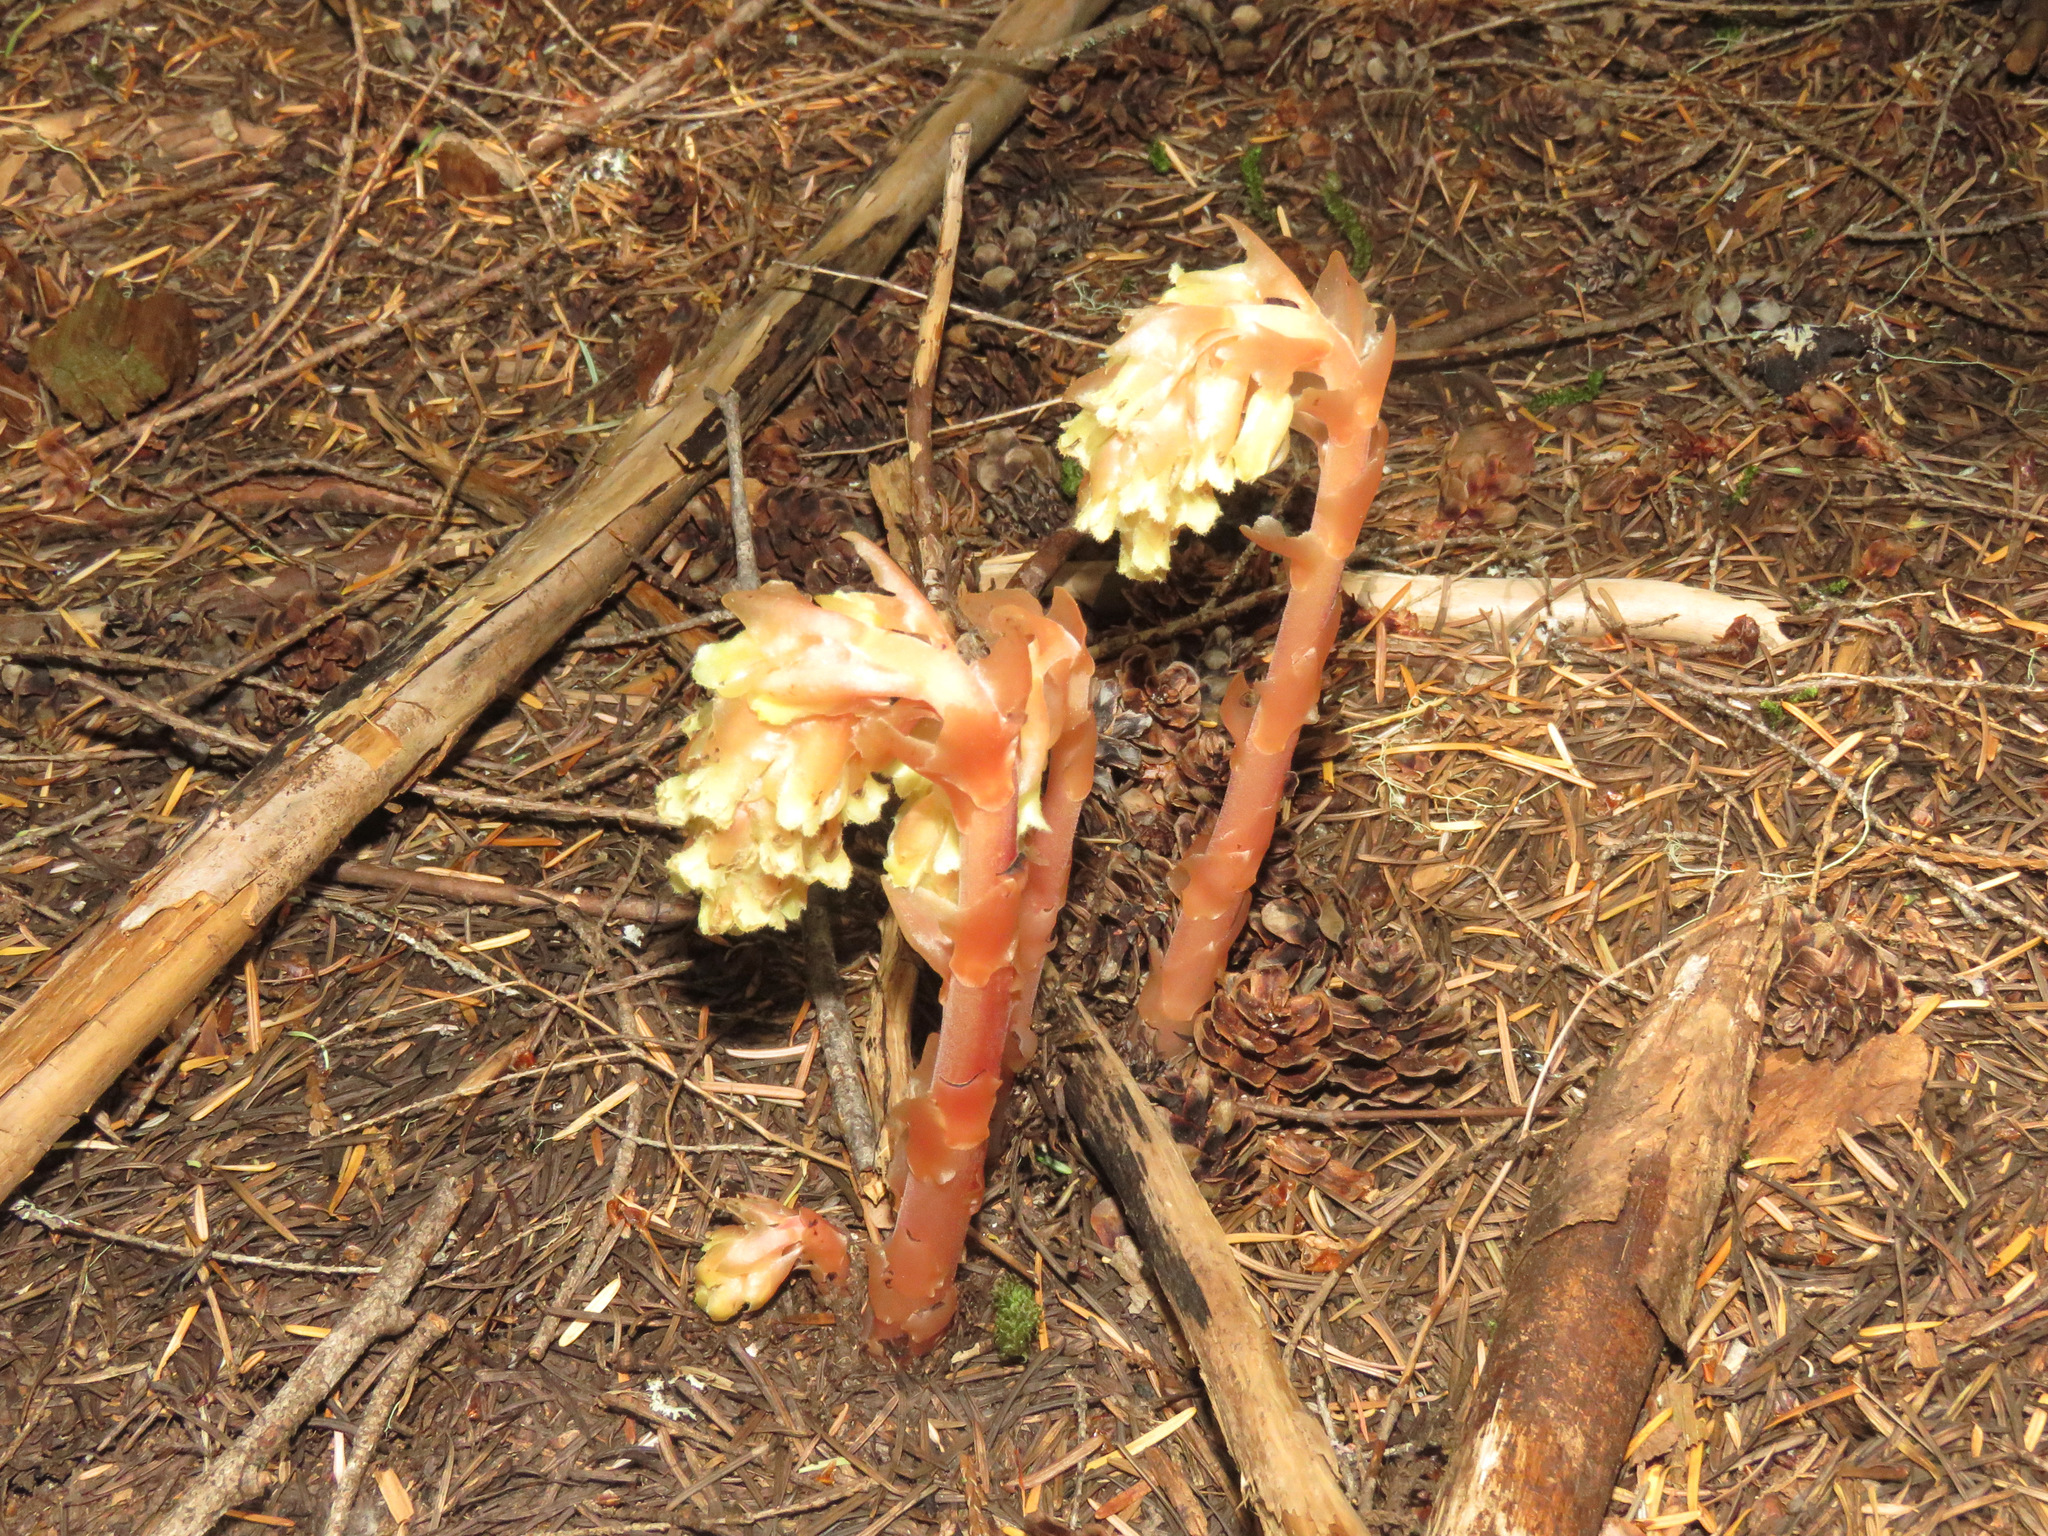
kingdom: Plantae
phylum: Tracheophyta
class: Magnoliopsida
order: Ericales
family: Ericaceae
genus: Hypopitys
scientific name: Hypopitys monotropa
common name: Yellow bird's-nest
